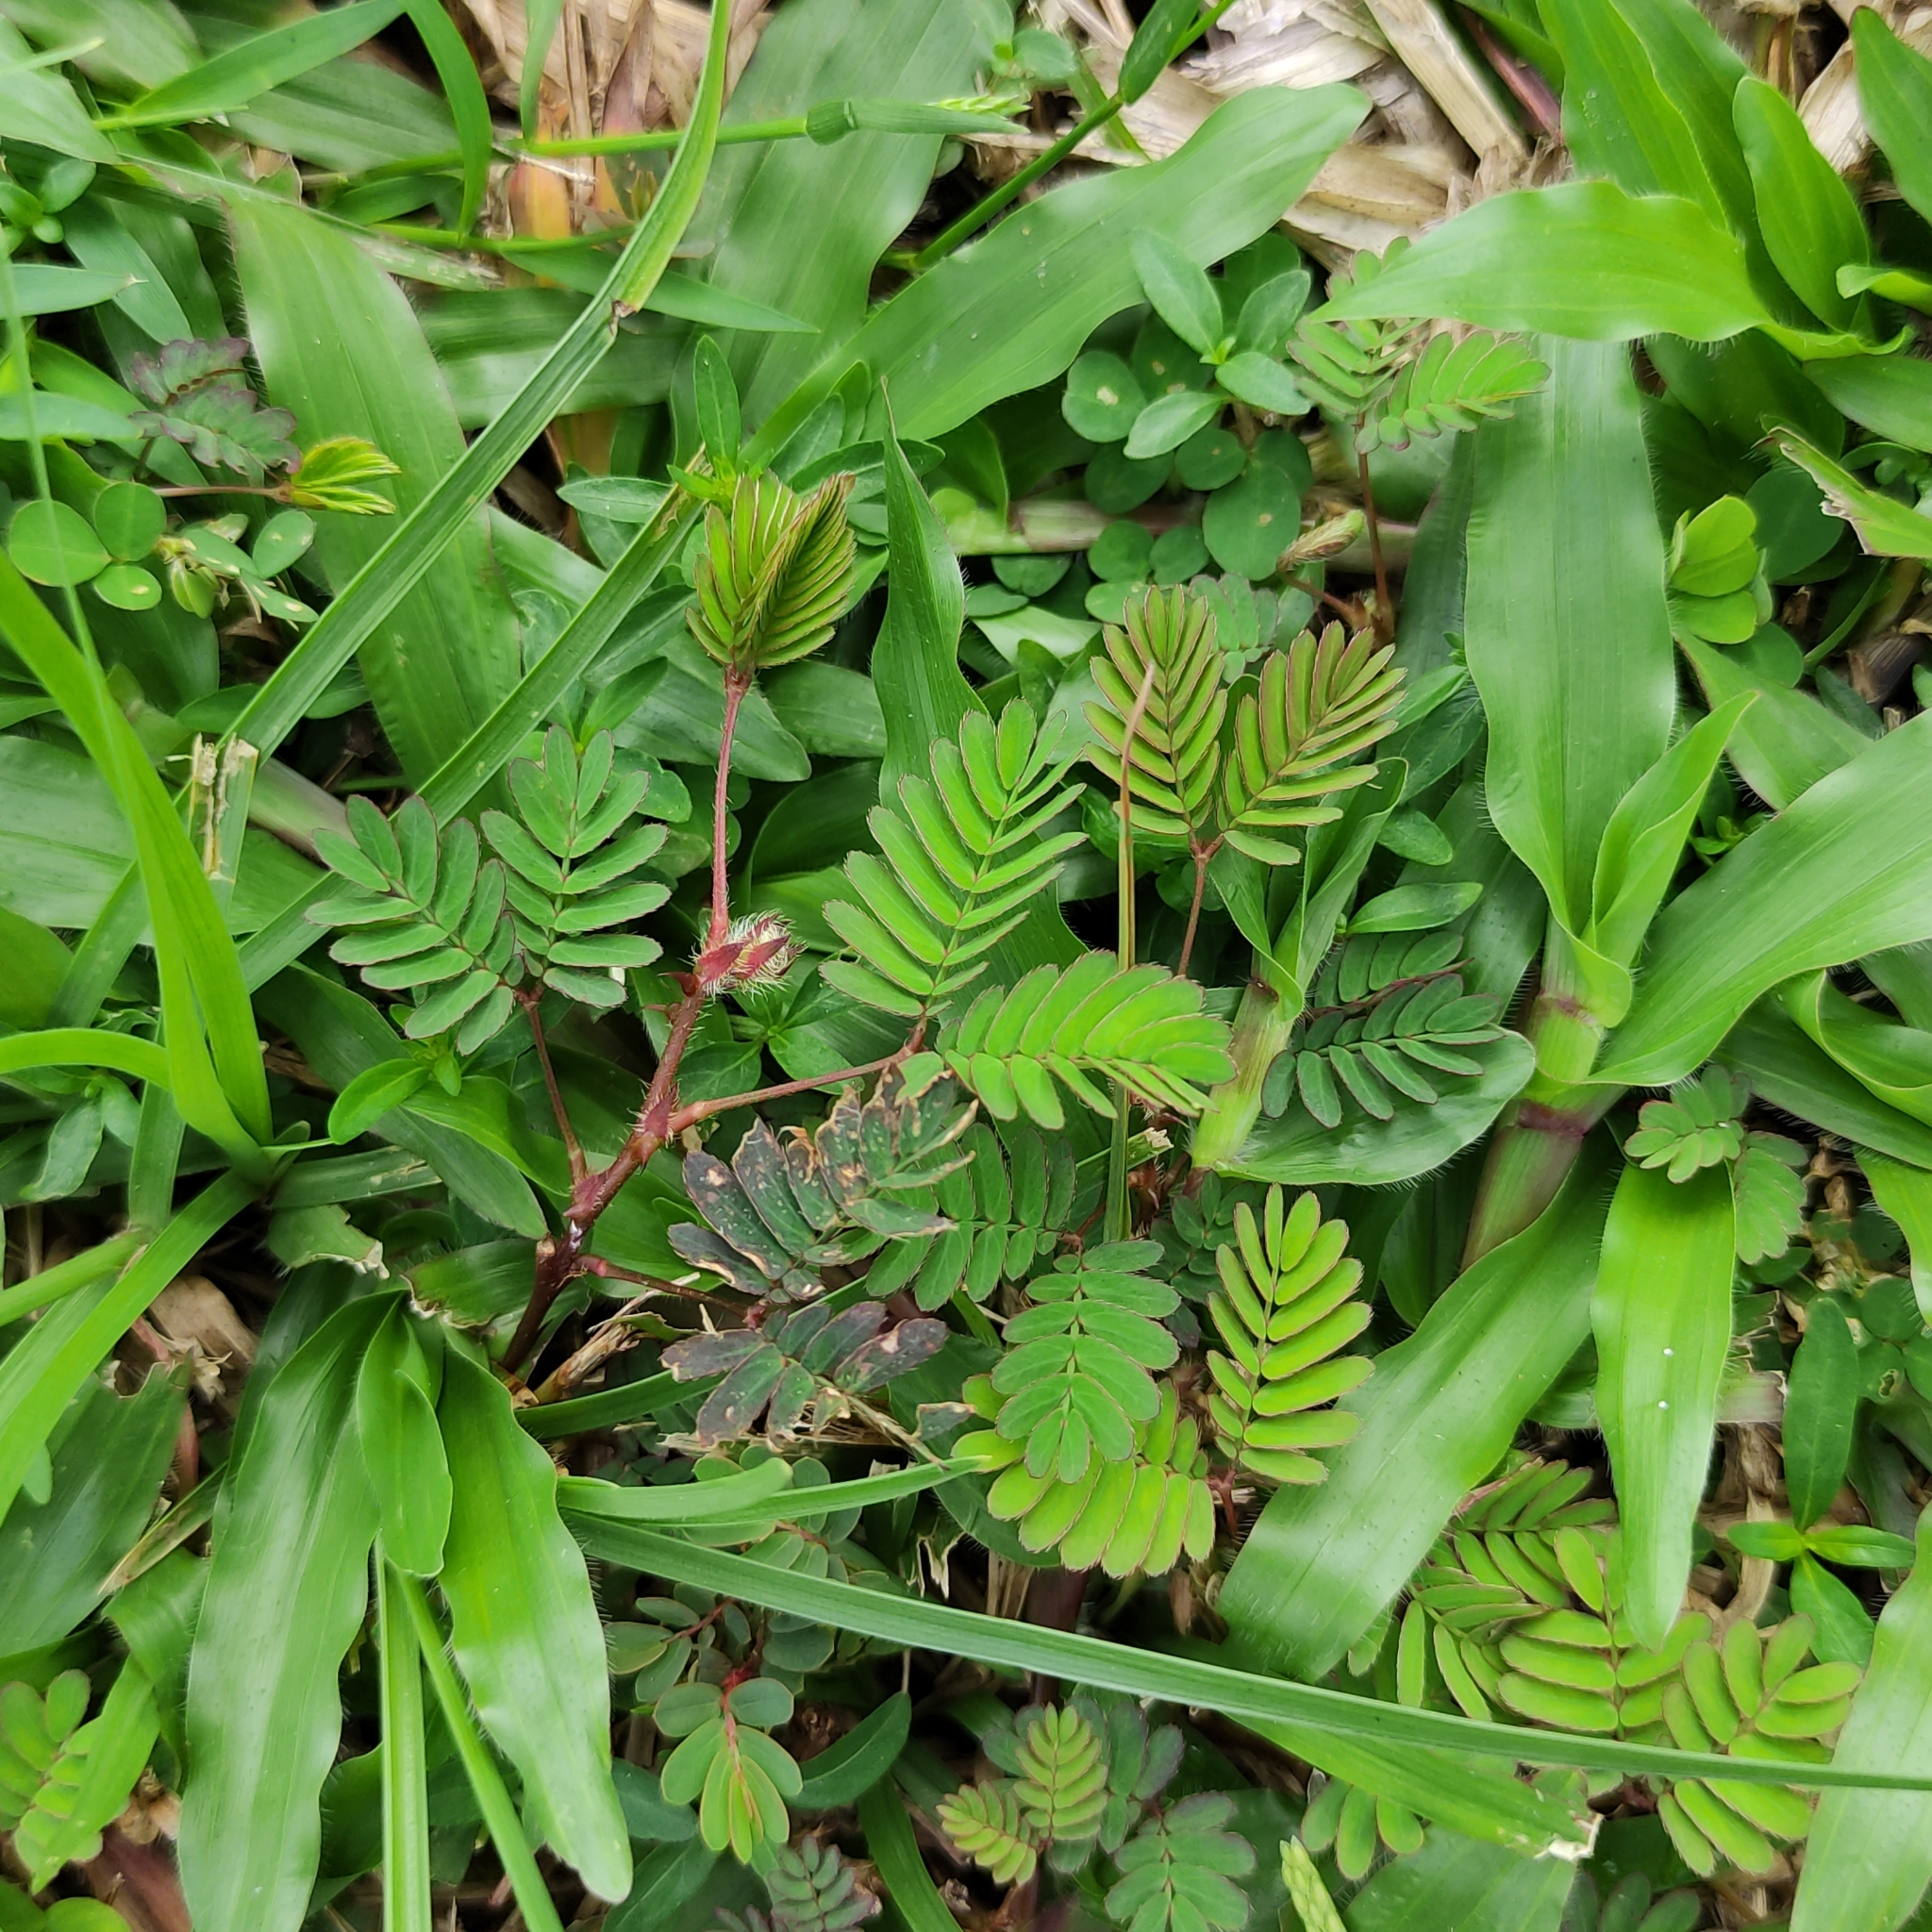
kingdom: Plantae
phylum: Tracheophyta
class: Magnoliopsida
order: Fabales
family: Fabaceae
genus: Mimosa
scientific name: Mimosa pudica
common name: Sensitive plant
